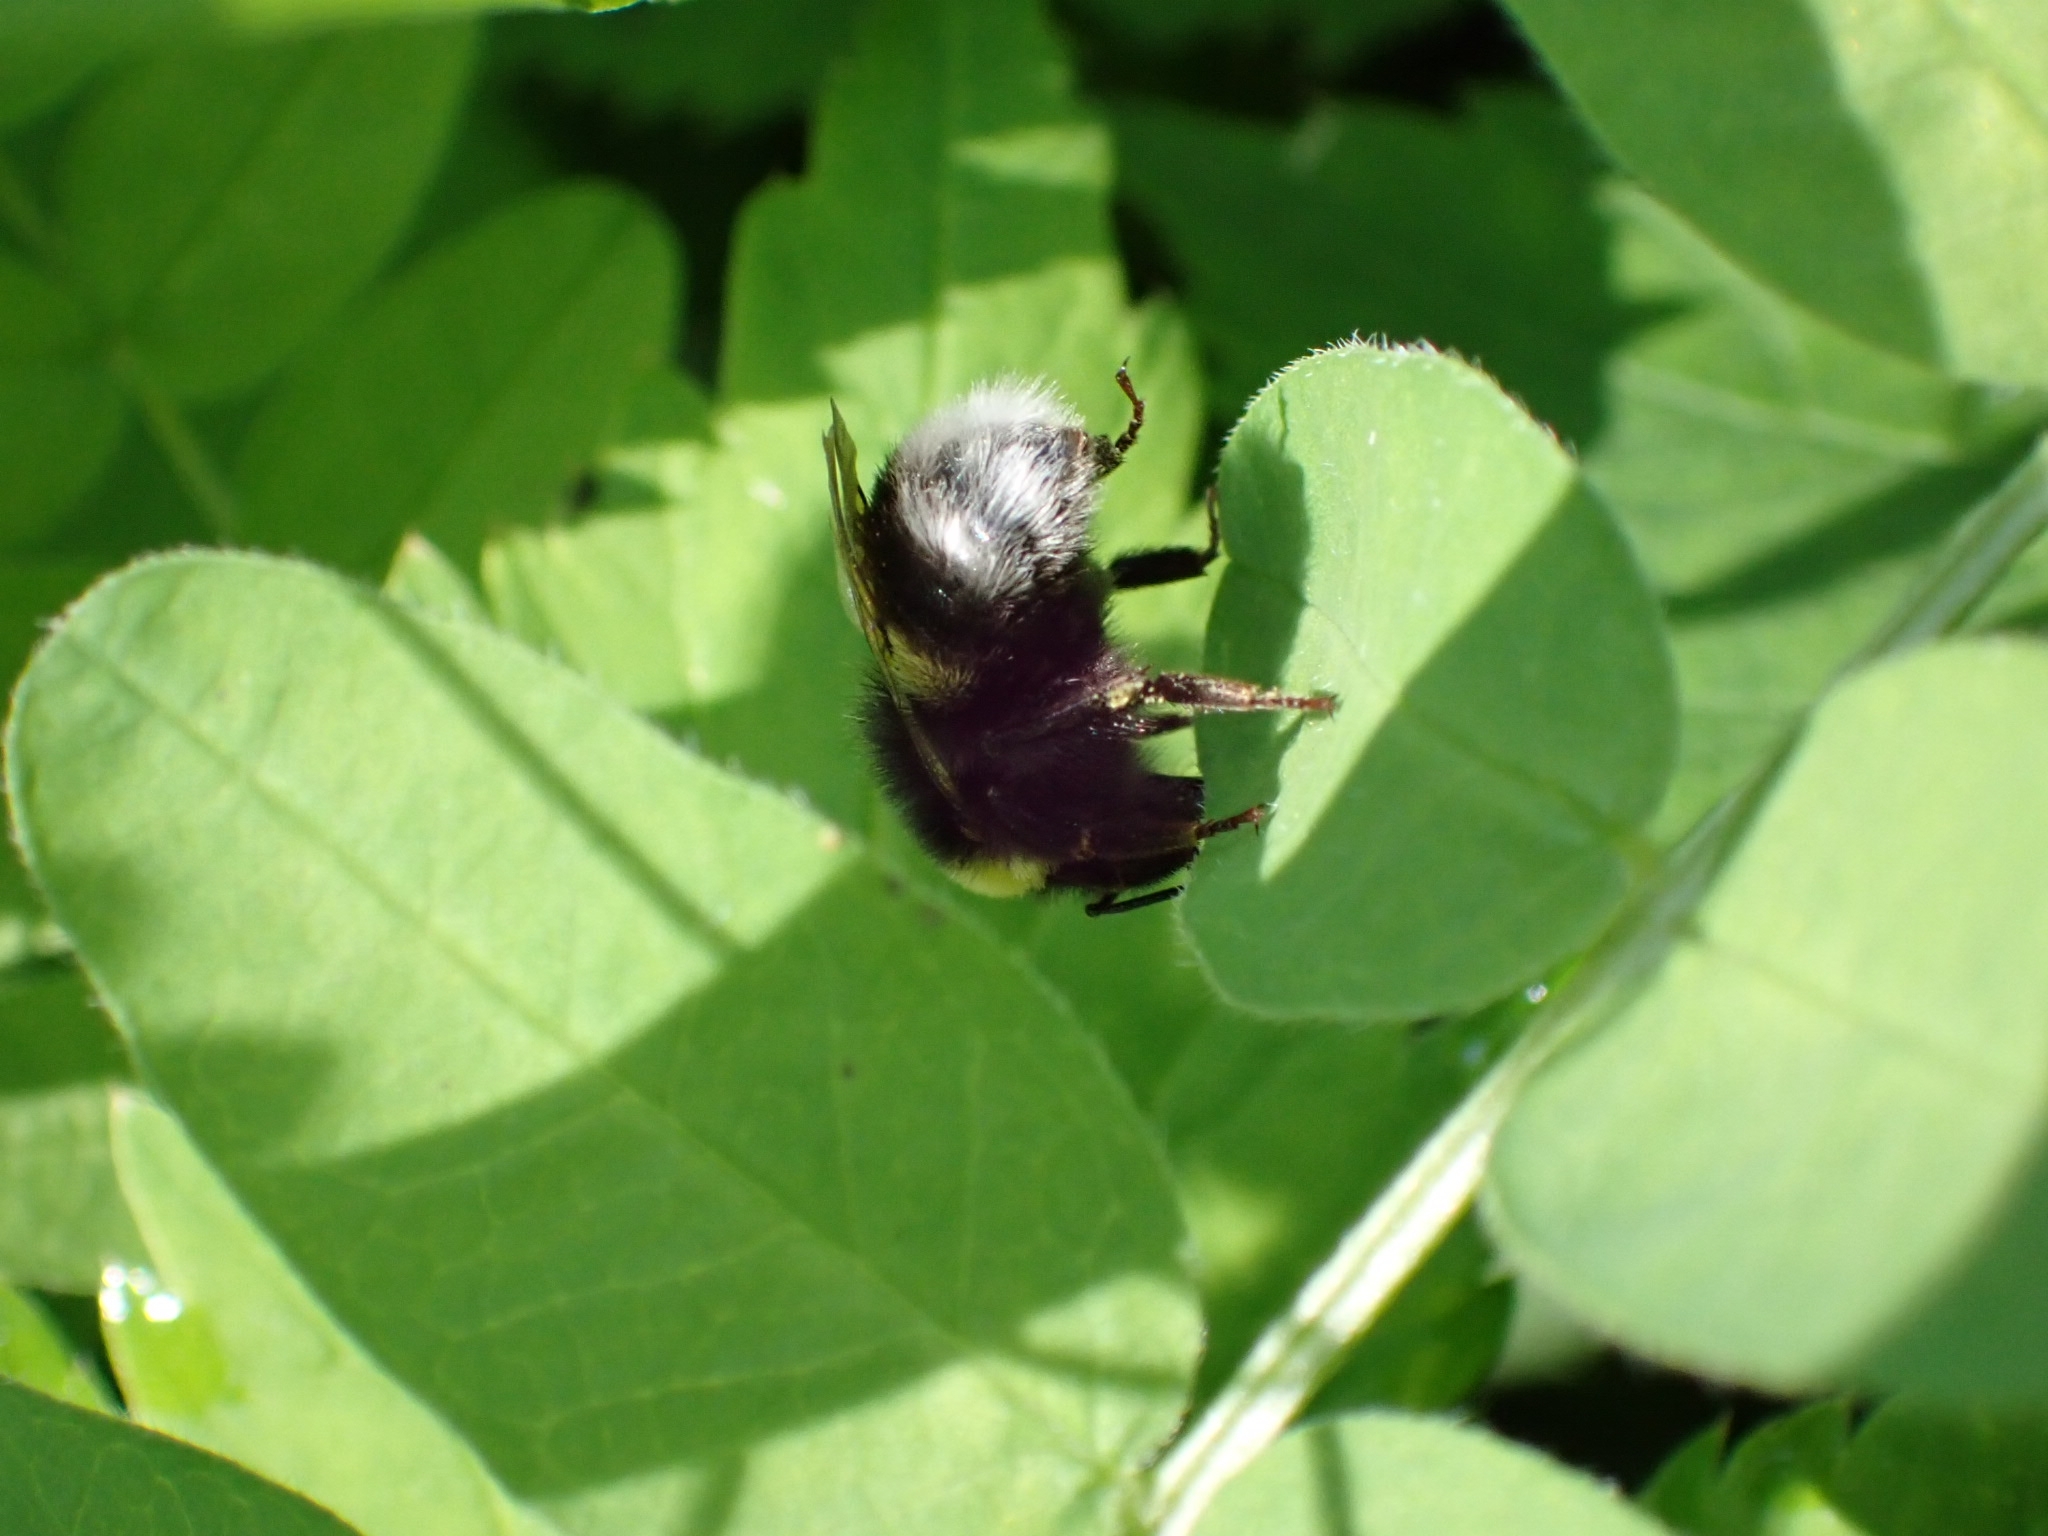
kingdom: Animalia
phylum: Arthropoda
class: Insecta
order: Hymenoptera
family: Apidae
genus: Bombus
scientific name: Bombus
